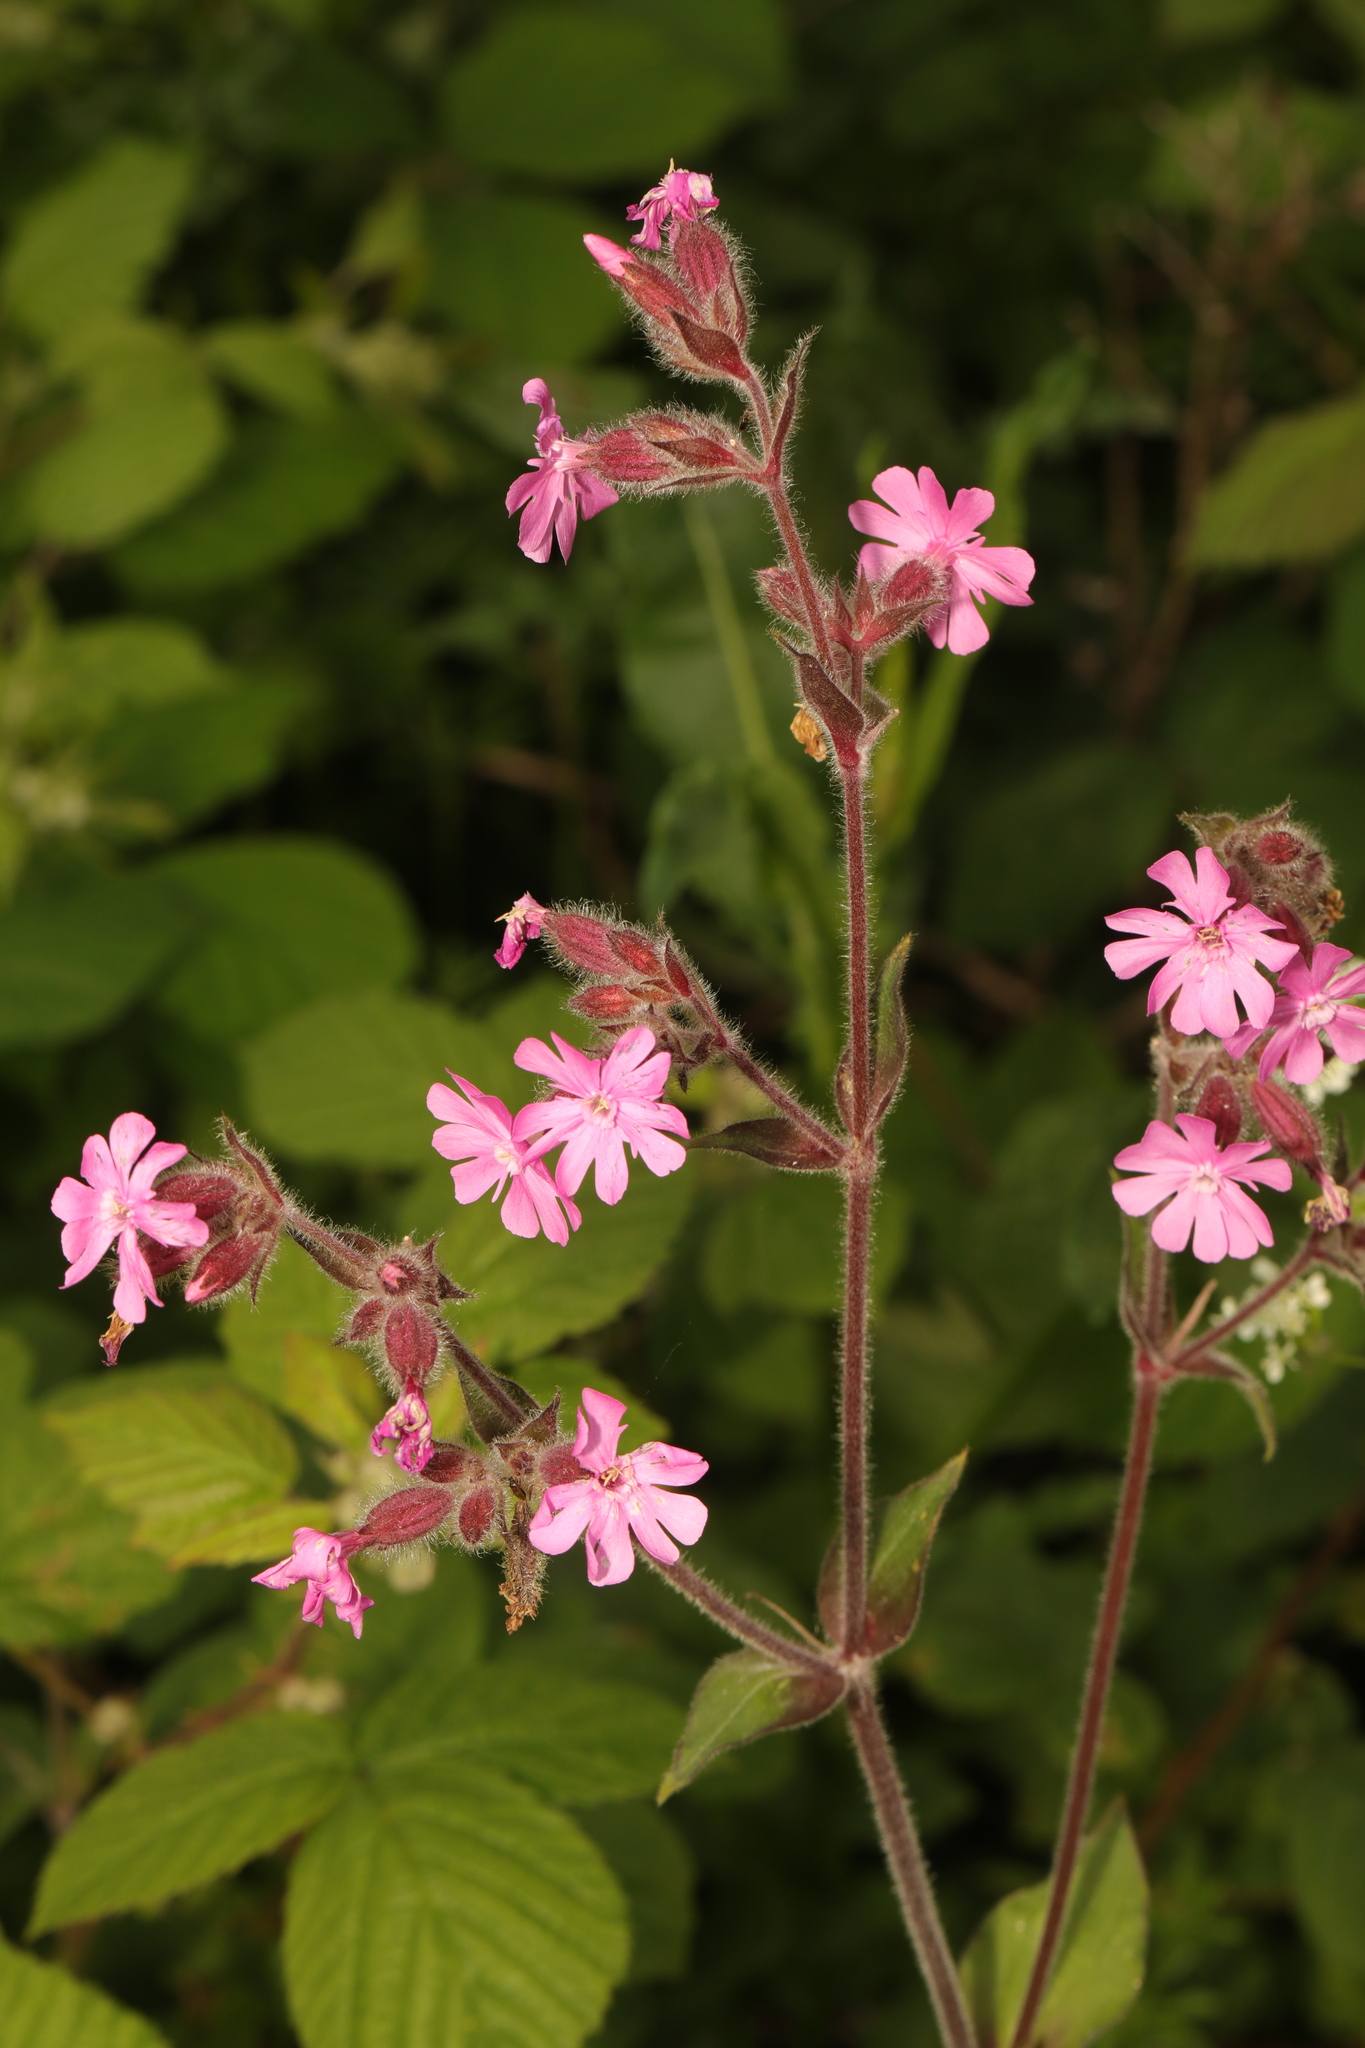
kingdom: Plantae
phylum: Tracheophyta
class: Magnoliopsida
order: Caryophyllales
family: Caryophyllaceae
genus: Silene
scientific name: Silene dioica
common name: Red campion
